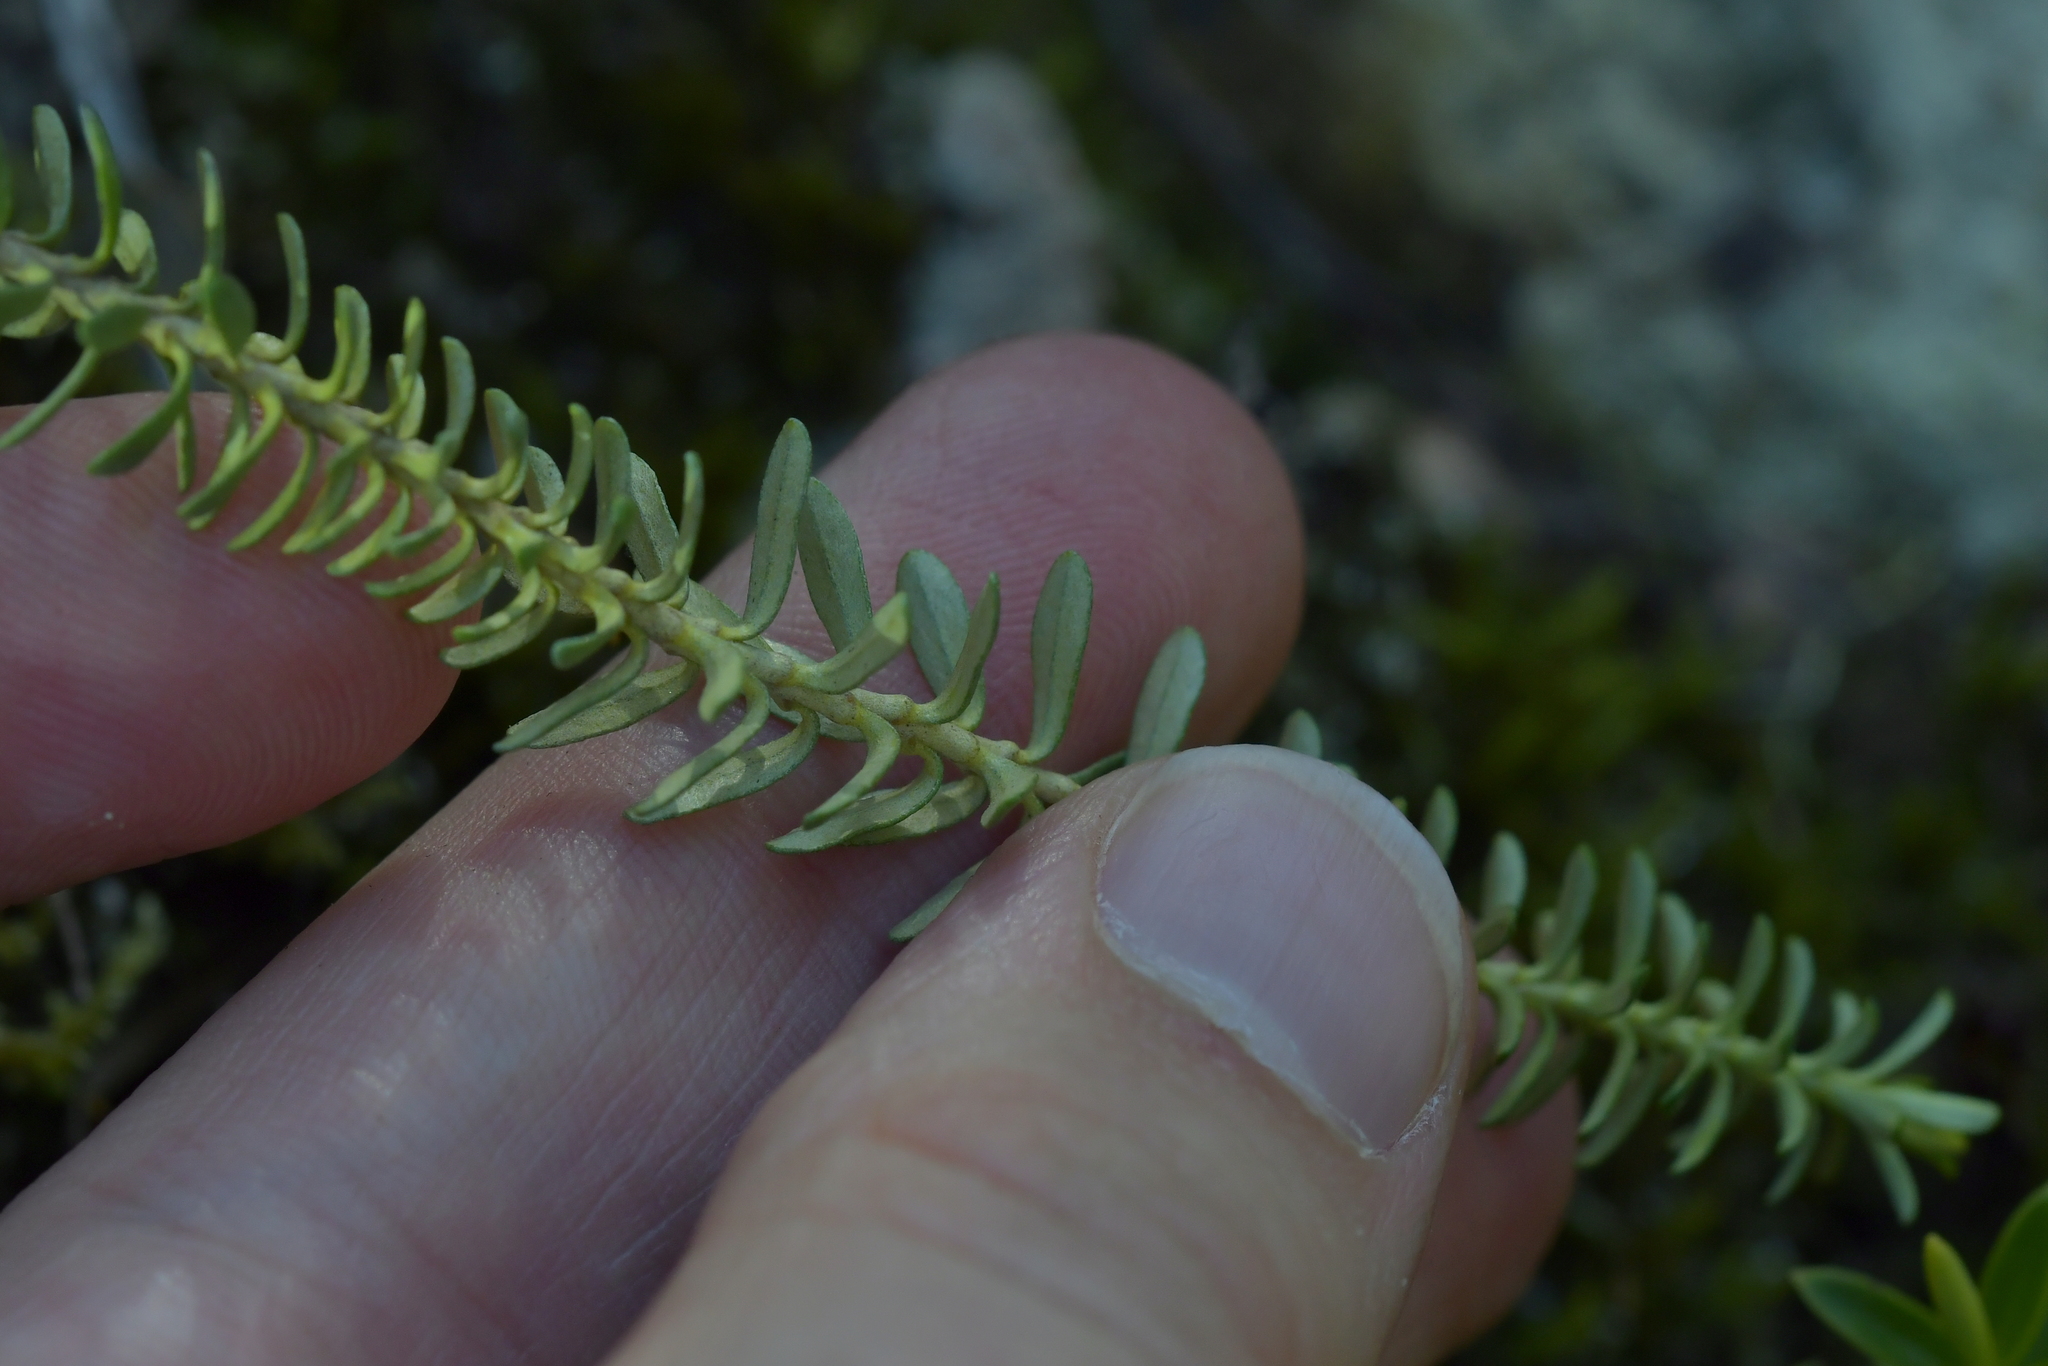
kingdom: Plantae
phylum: Tracheophyta
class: Magnoliopsida
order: Asterales
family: Asteraceae
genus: Ozothamnus
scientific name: Ozothamnus leptophyllus
